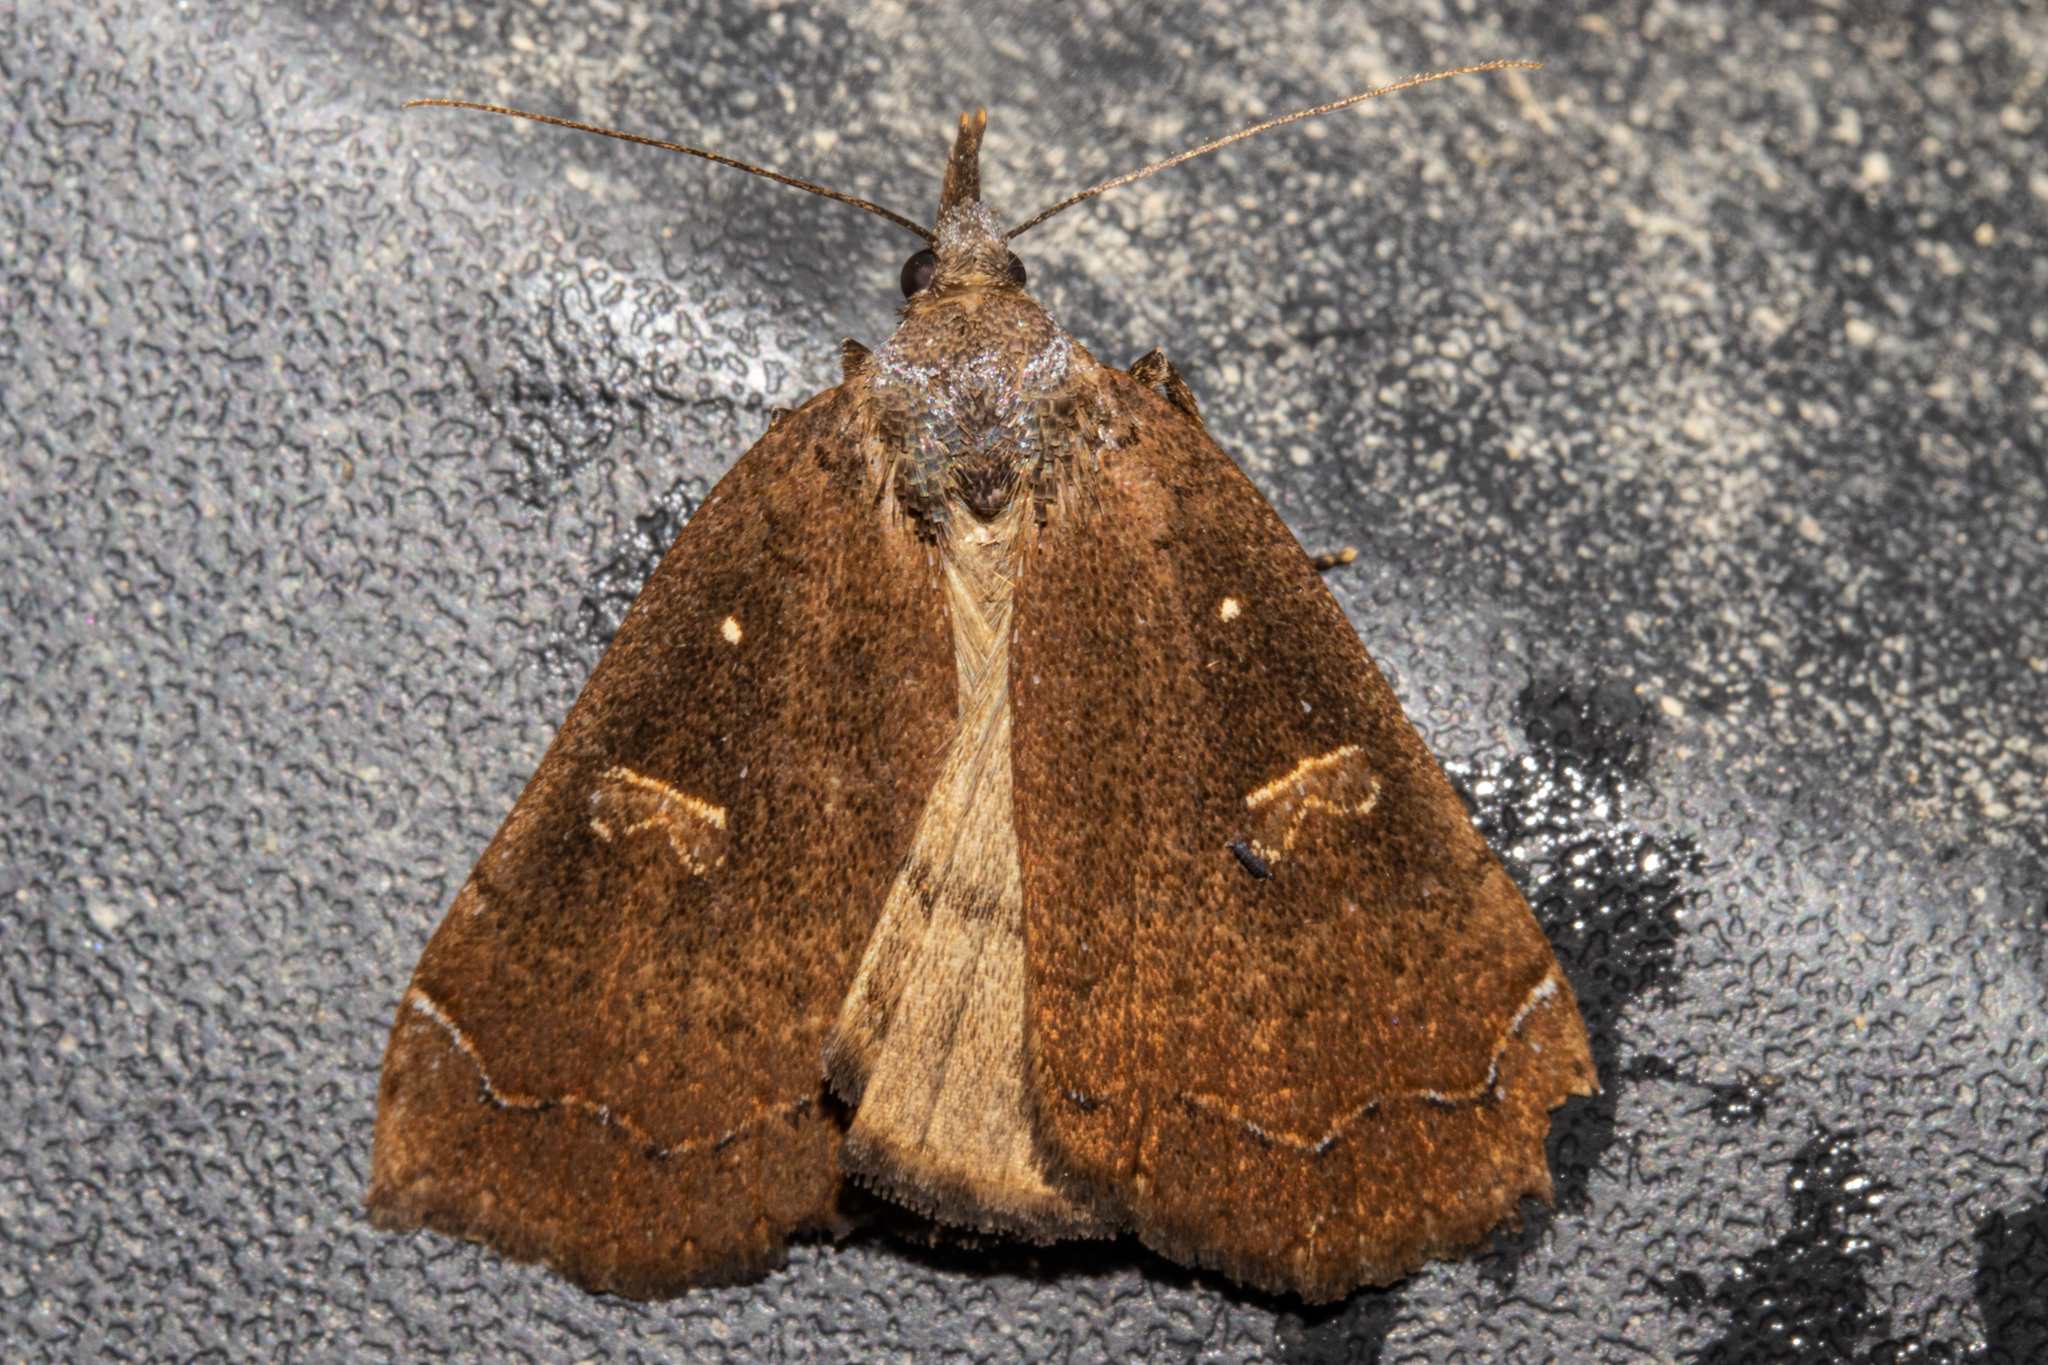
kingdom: Animalia
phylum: Arthropoda
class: Insecta
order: Lepidoptera
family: Erebidae
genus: Rhapsa
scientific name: Rhapsa scotosialis
